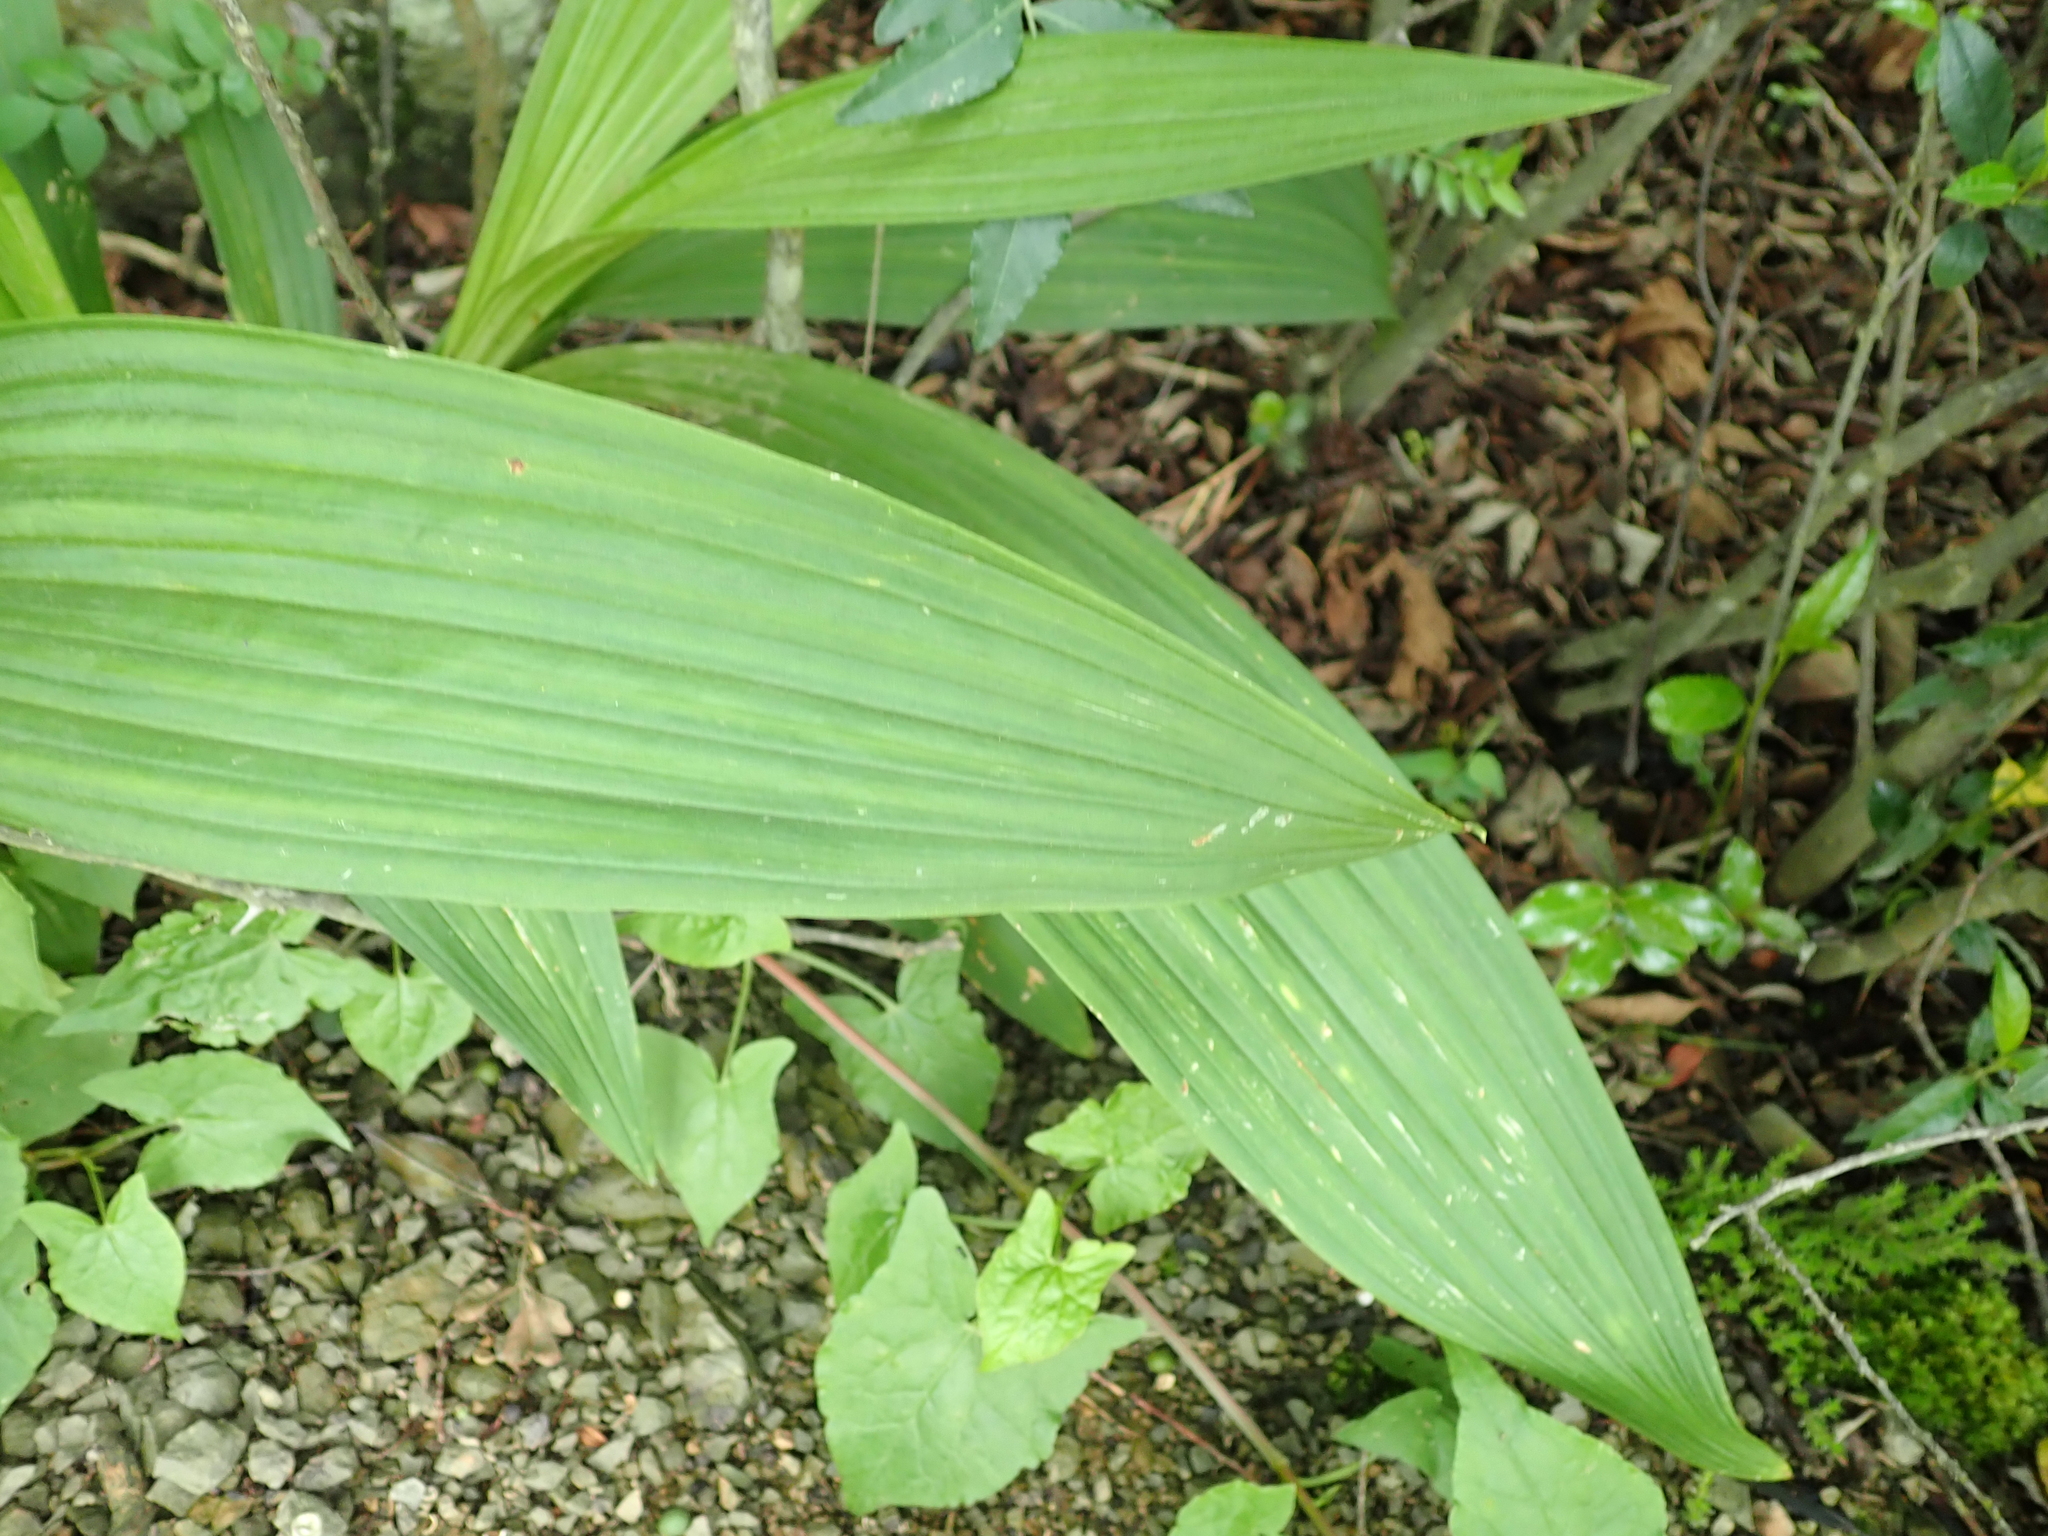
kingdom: Plantae
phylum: Tracheophyta
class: Liliopsida
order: Asparagales
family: Orchidaceae
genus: Eulophia
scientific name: Eulophia streptopetala
